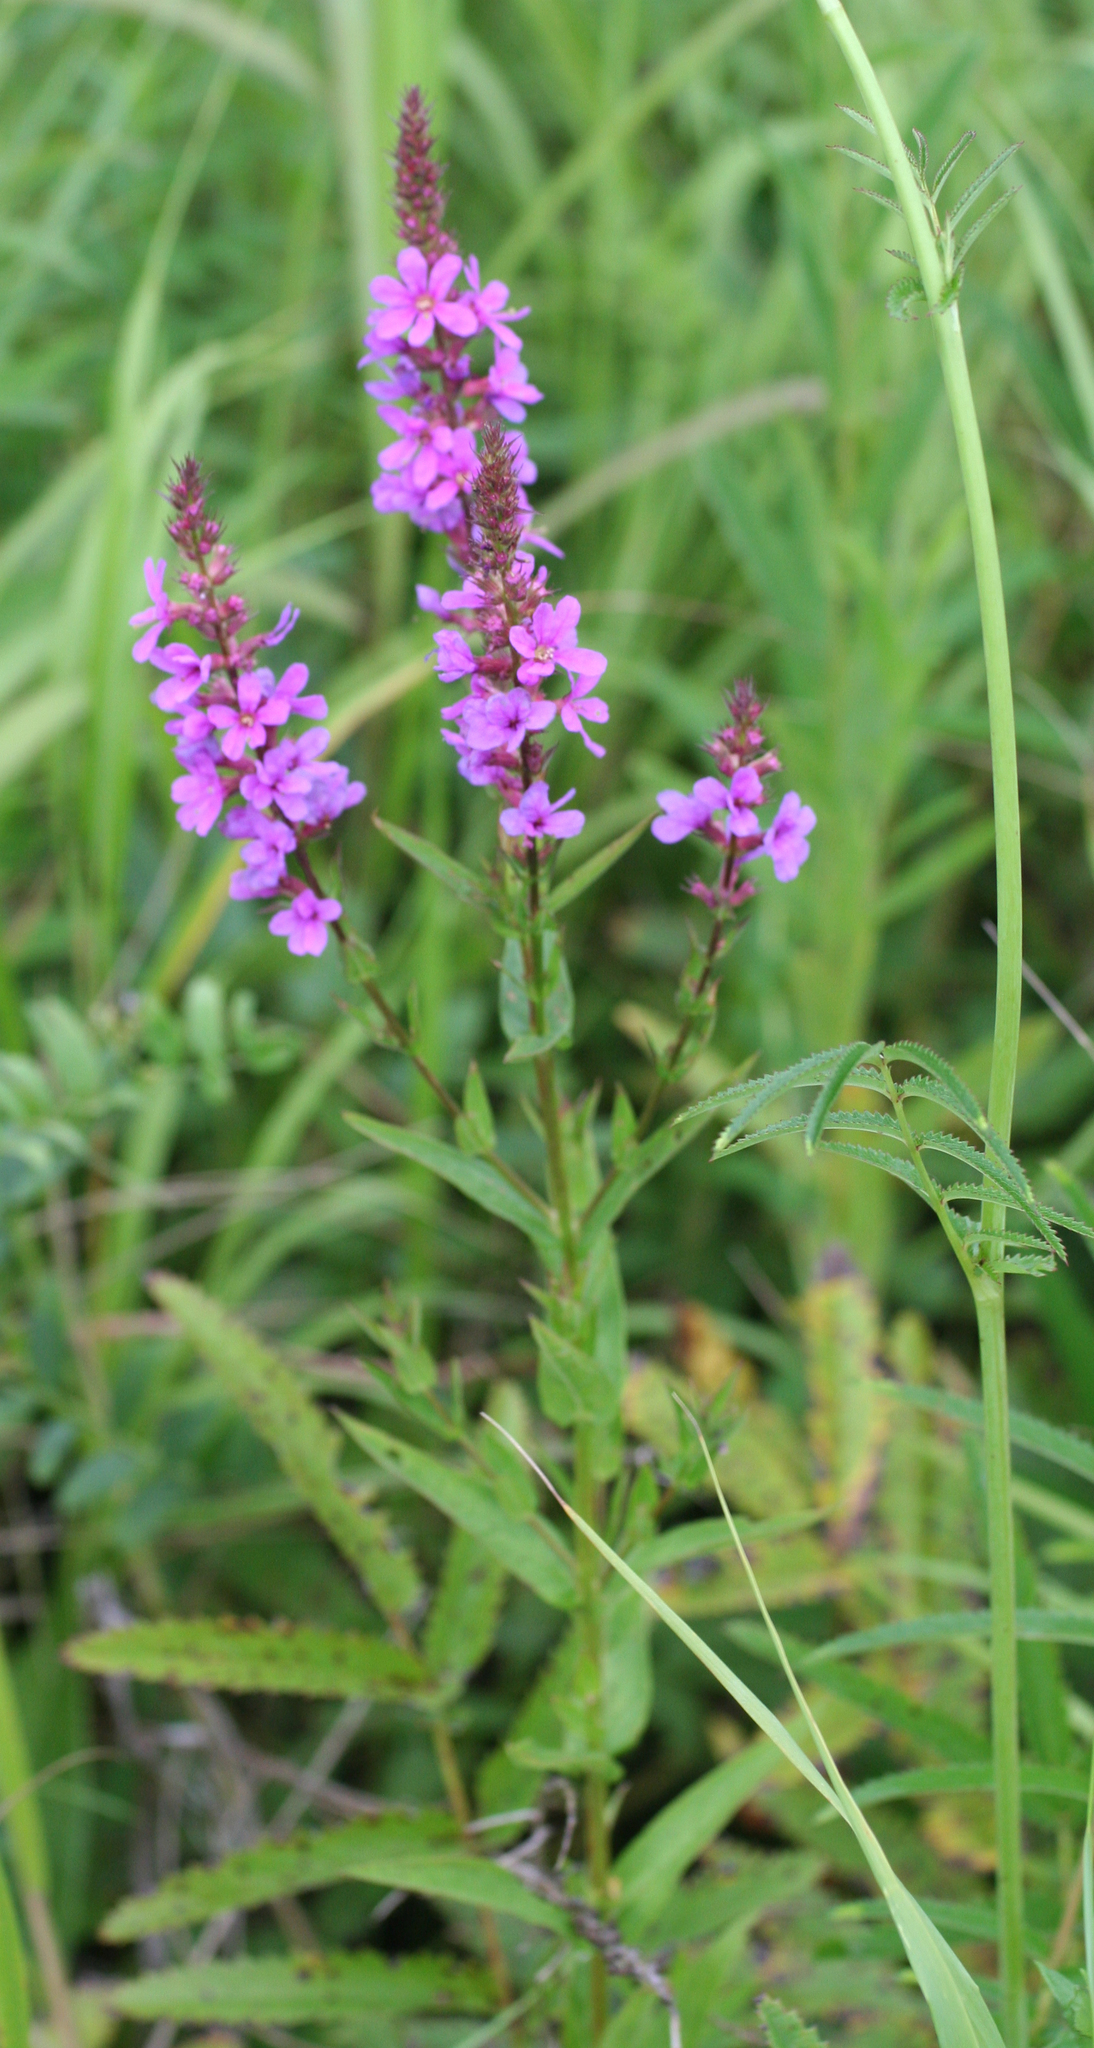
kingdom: Plantae
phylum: Tracheophyta
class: Magnoliopsida
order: Myrtales
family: Lythraceae
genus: Lythrum
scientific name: Lythrum salicaria
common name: Purple loosestrife
